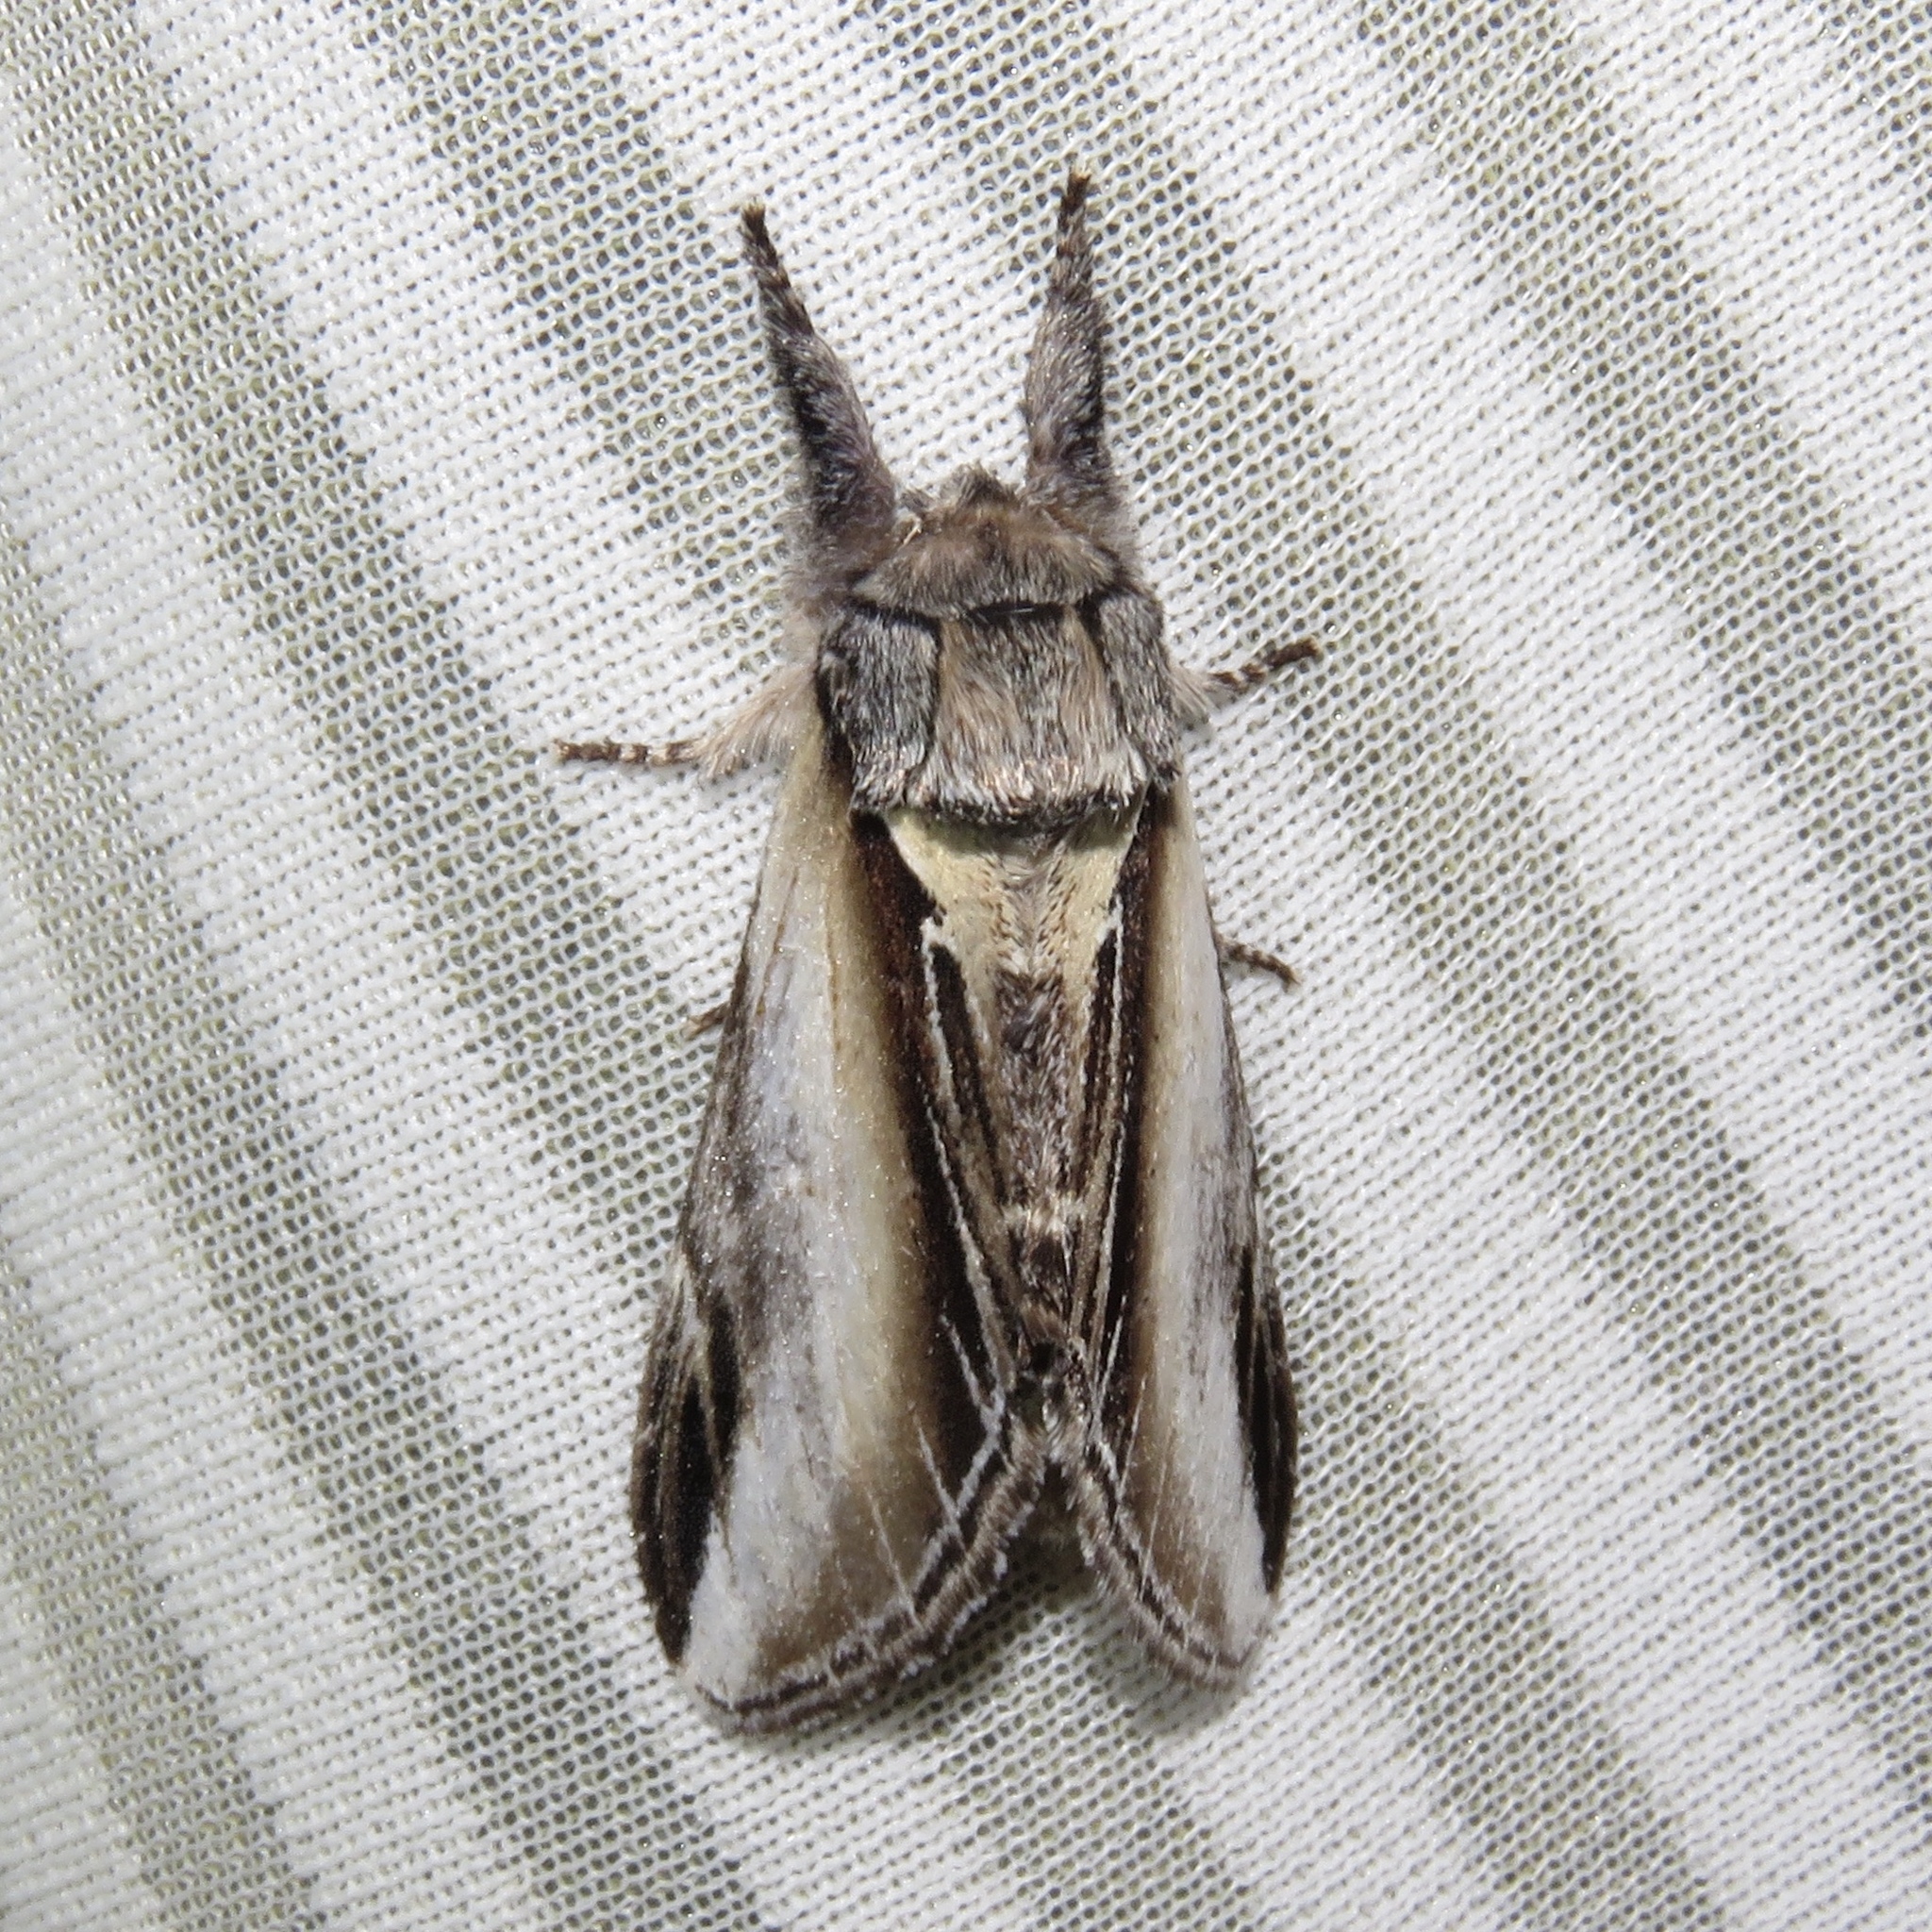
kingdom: Animalia
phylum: Arthropoda
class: Insecta
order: Lepidoptera
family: Notodontidae
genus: Pheosia
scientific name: Pheosia rimosa
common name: Black-rimmed prominent
